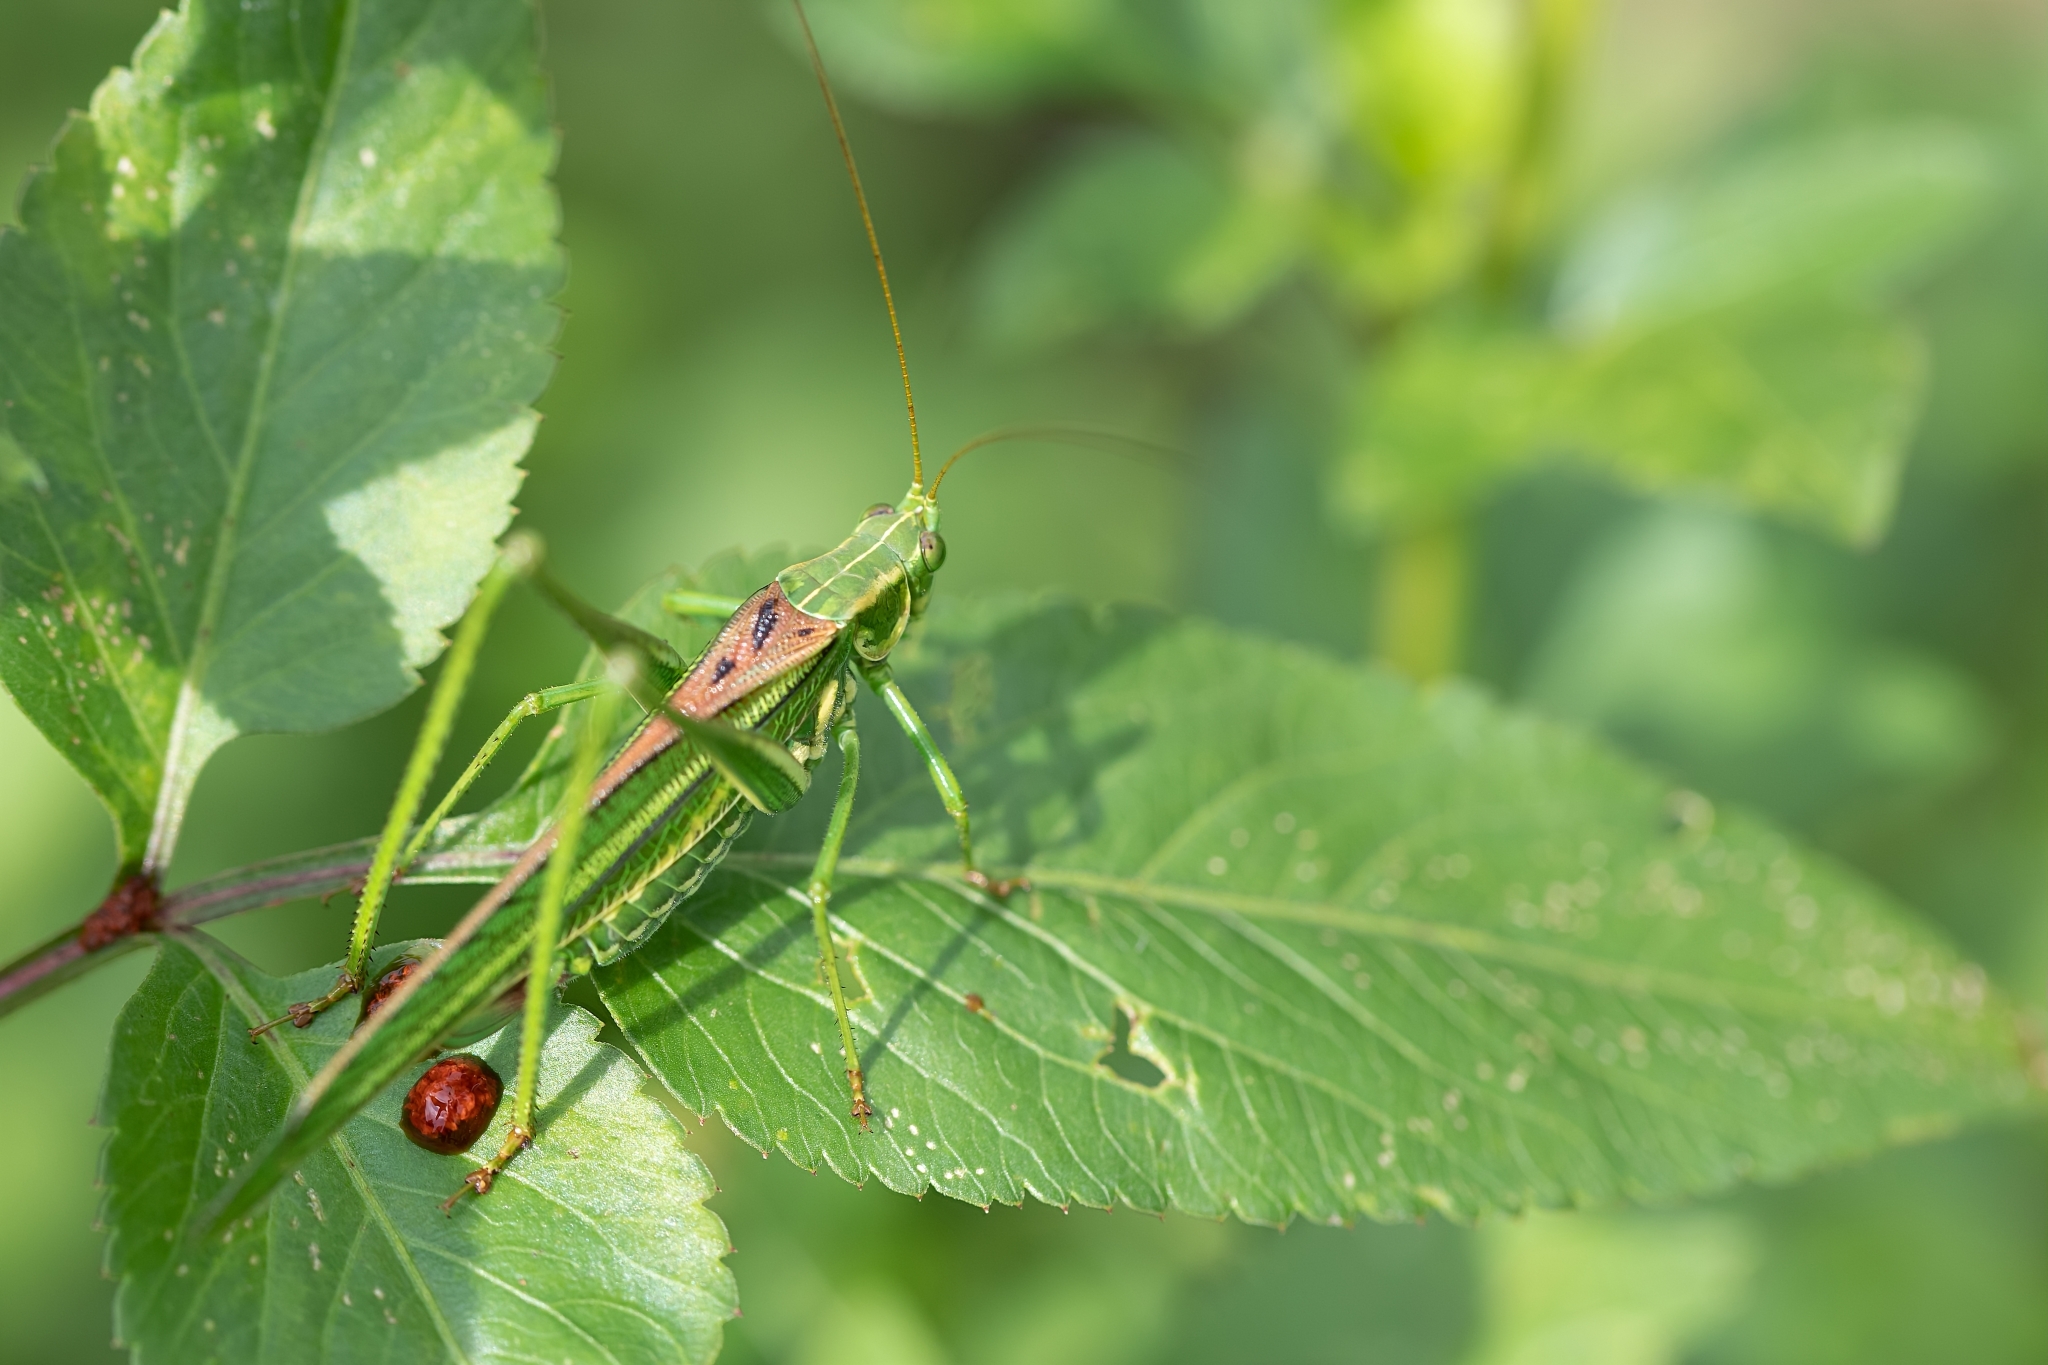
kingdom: Animalia
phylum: Arthropoda
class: Insecta
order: Orthoptera
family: Tettigoniidae
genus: Inscudderia
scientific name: Inscudderia walkeri
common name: Eastern cypress katydid
